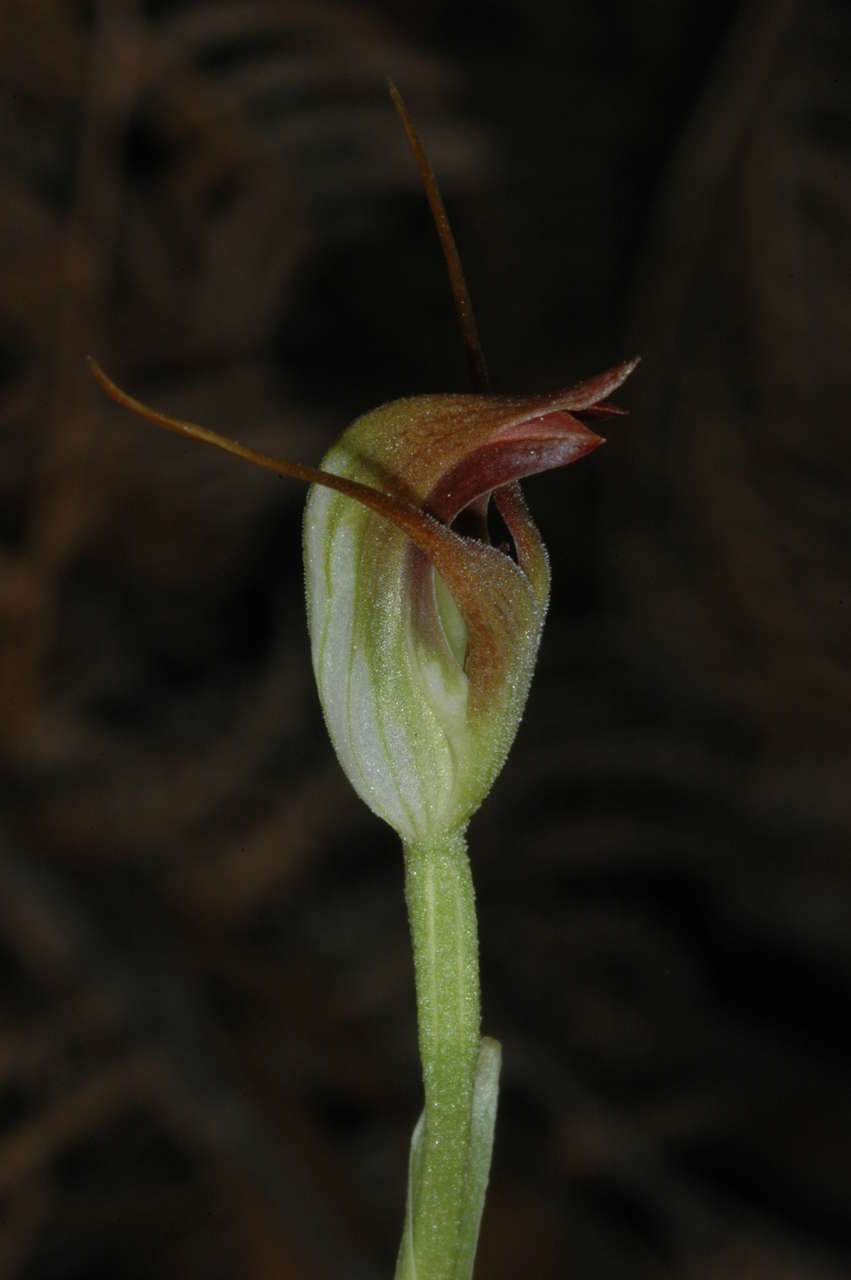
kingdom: Plantae
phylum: Tracheophyta
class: Liliopsida
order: Asparagales
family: Orchidaceae
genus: Pterostylis
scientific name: Pterostylis pedunculata
